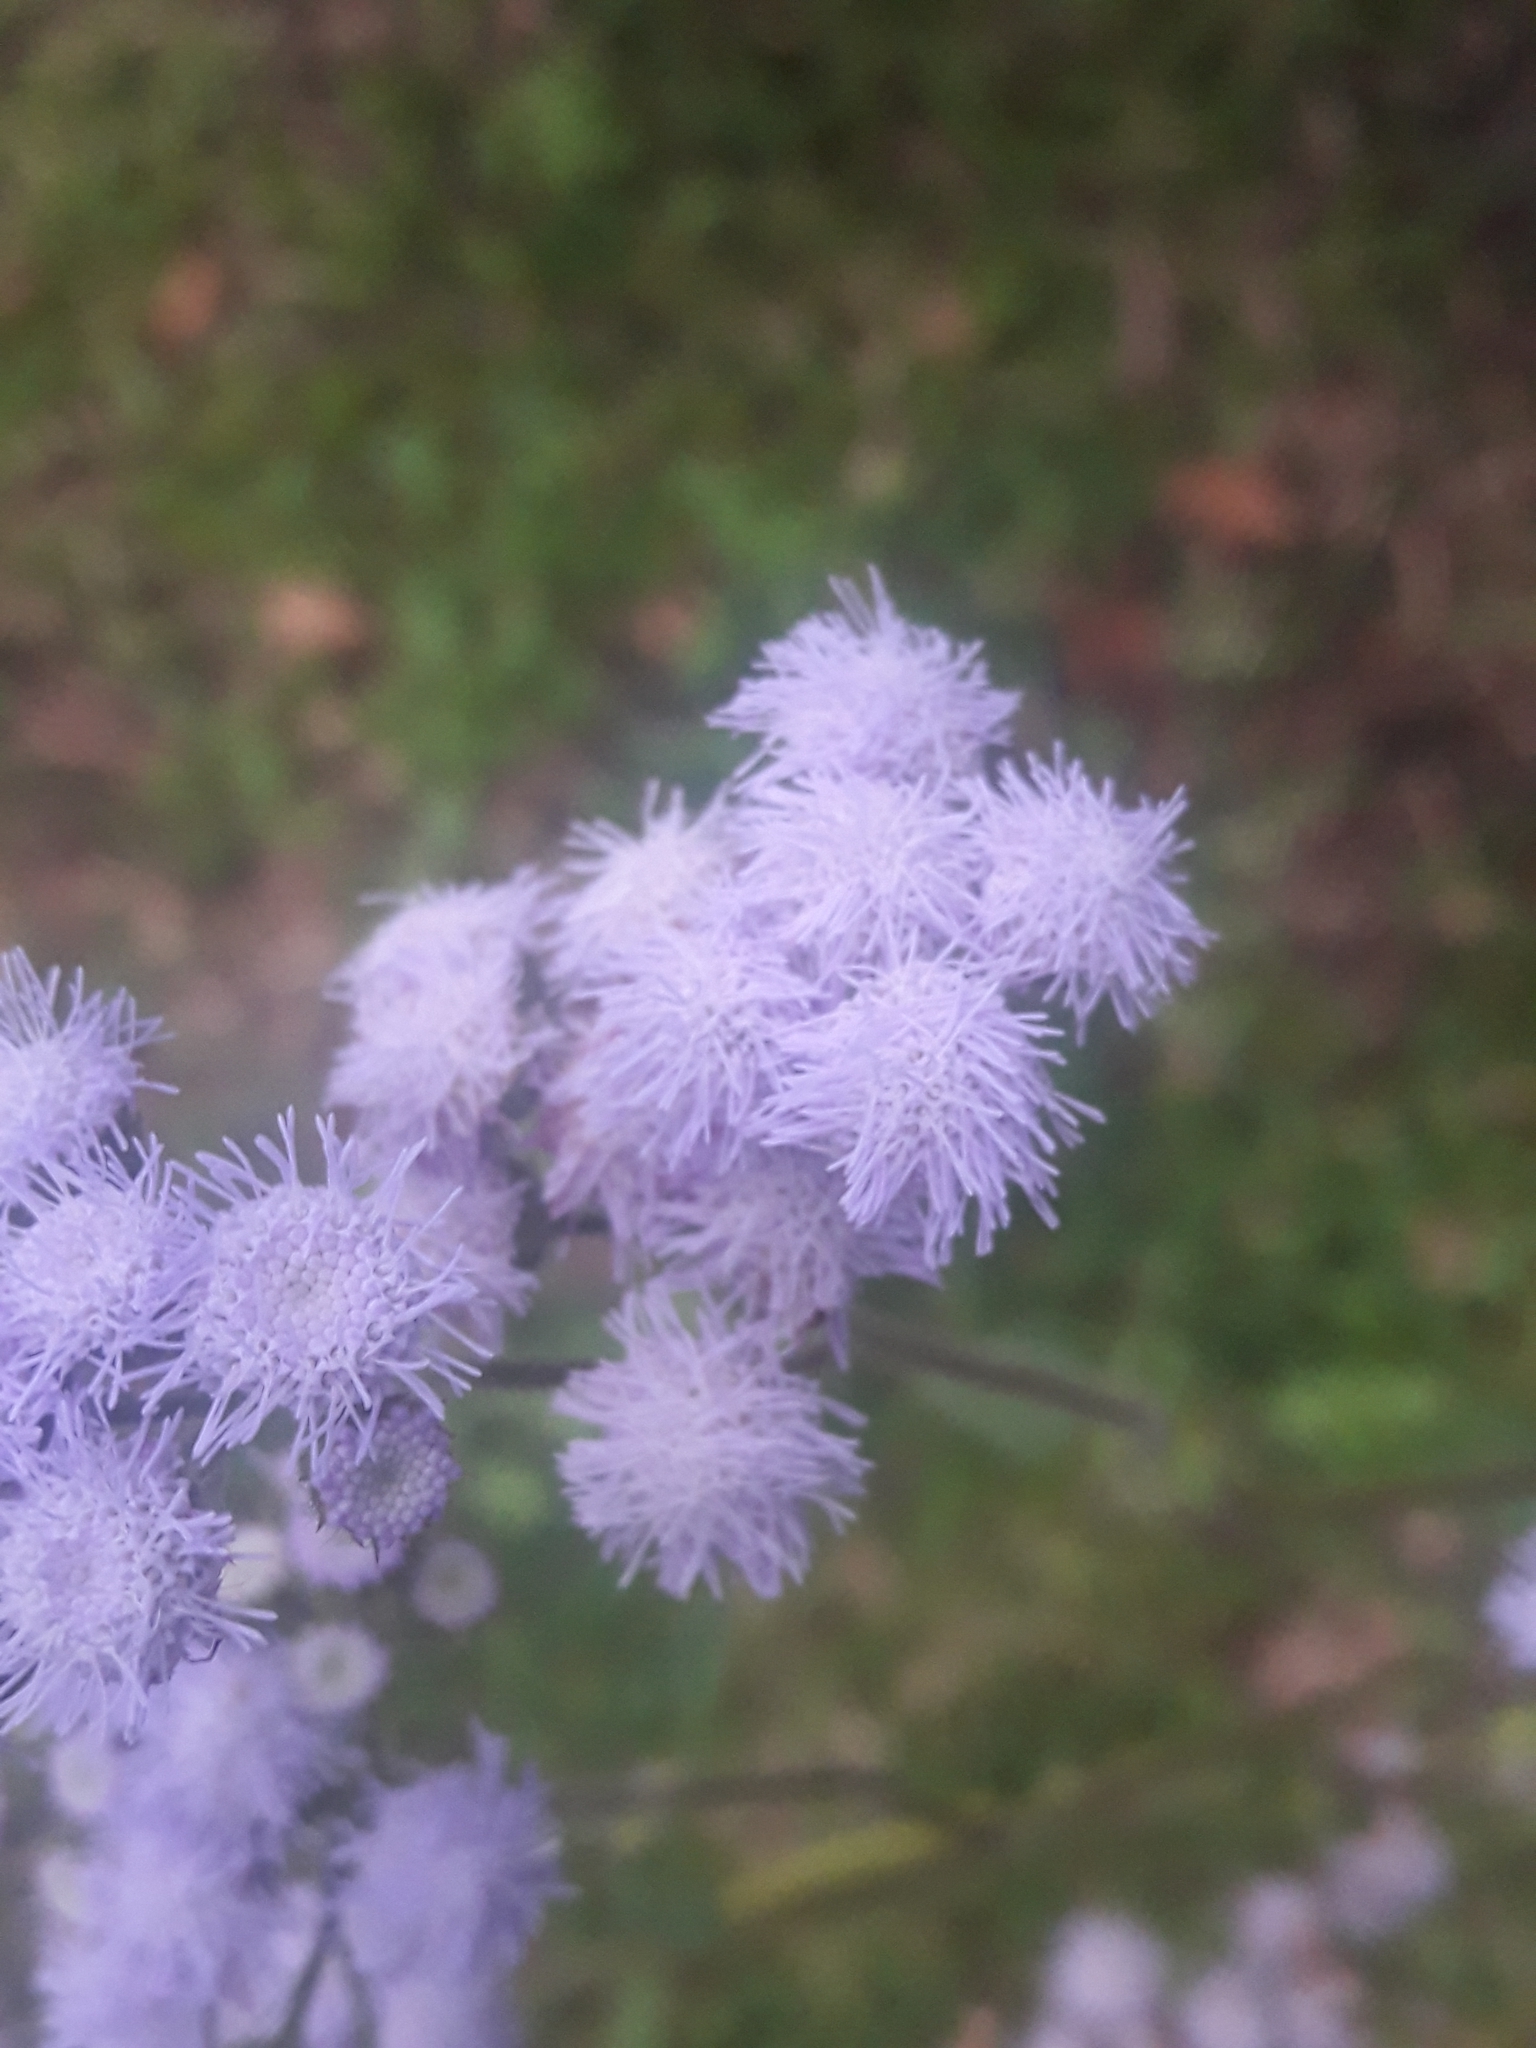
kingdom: Plantae
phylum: Tracheophyta
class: Magnoliopsida
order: Asterales
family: Asteraceae
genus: Ageratum
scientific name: Ageratum houstonianum
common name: Bluemink
